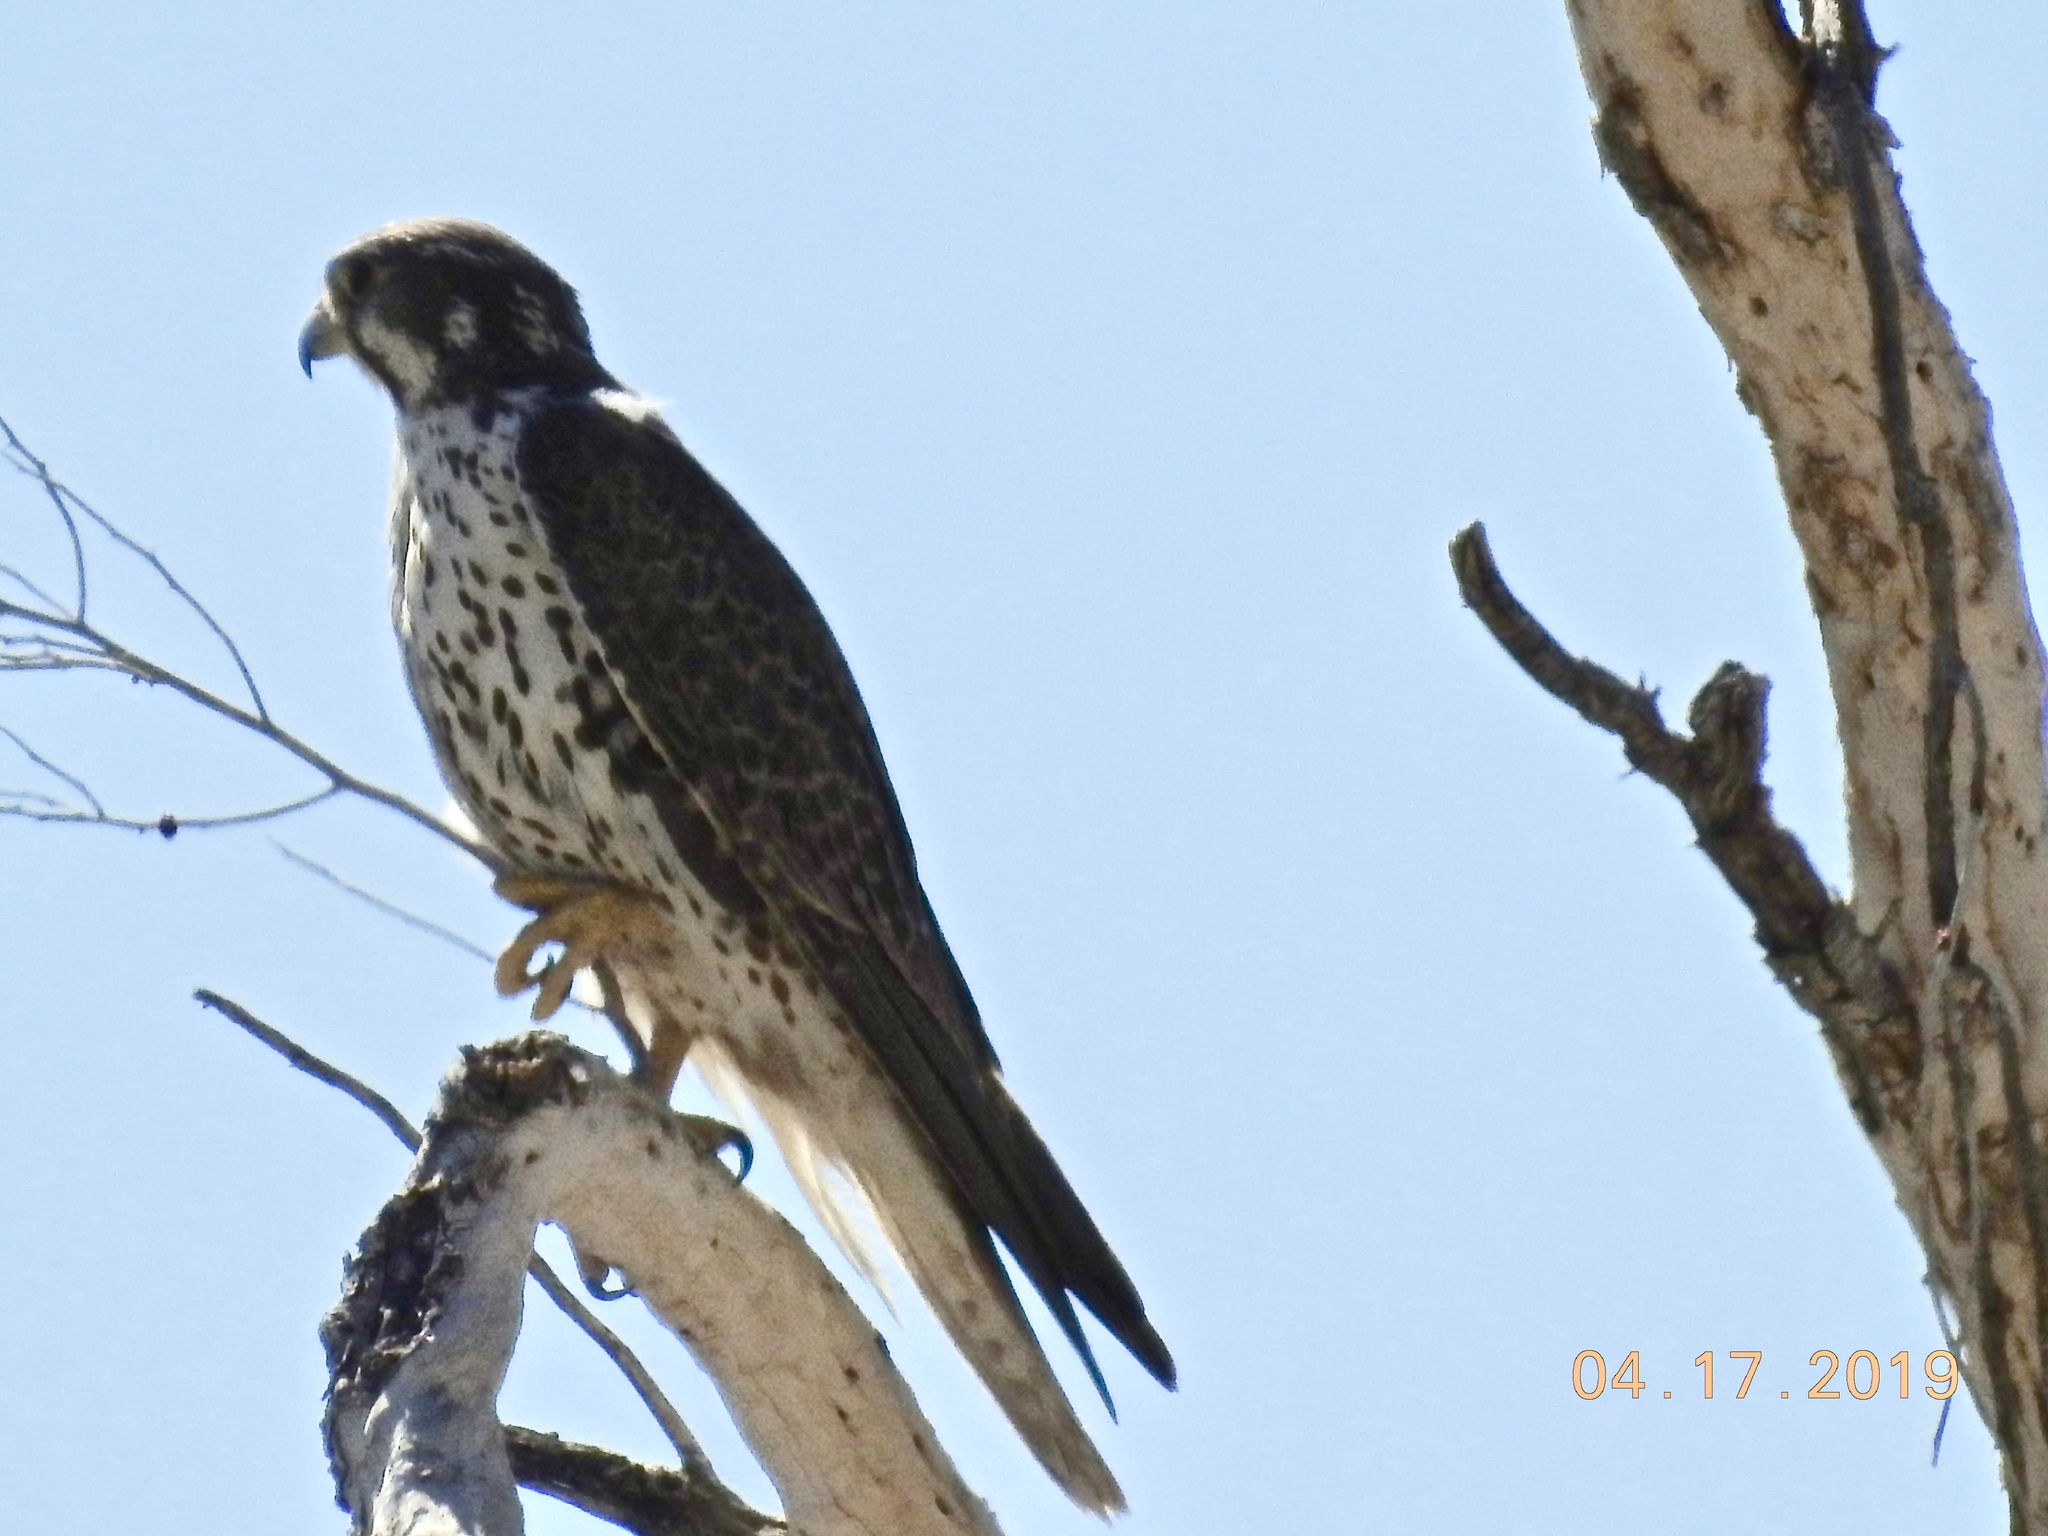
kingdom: Animalia
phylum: Chordata
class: Aves
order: Falconiformes
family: Falconidae
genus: Falco
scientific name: Falco mexicanus
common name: Prairie falcon
